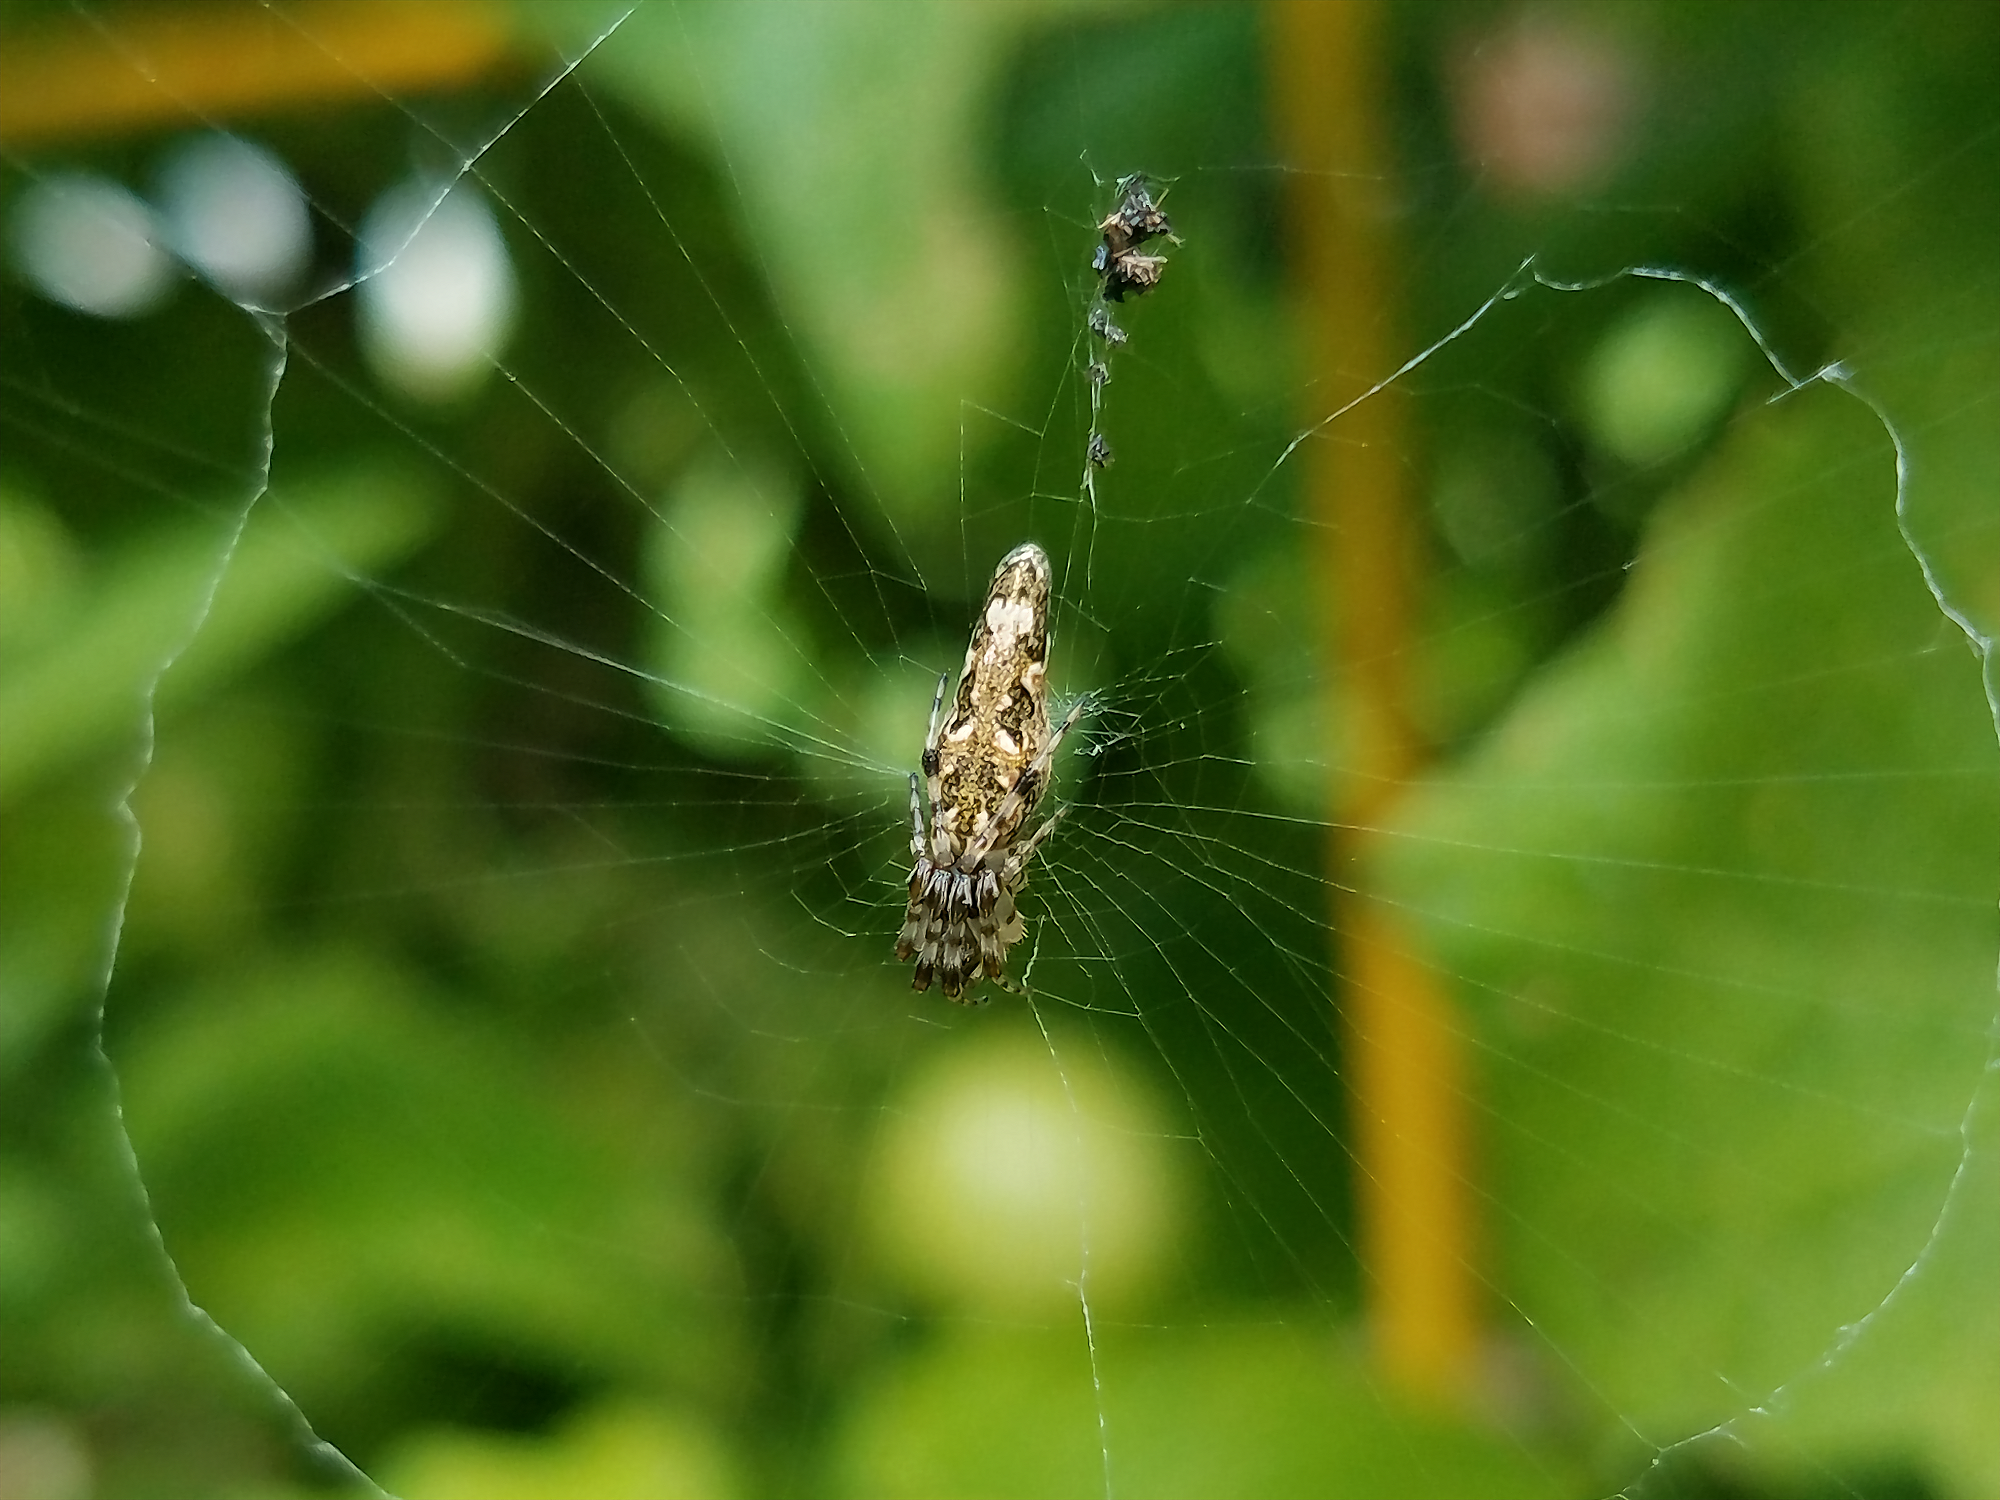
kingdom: Animalia
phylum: Arthropoda
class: Arachnida
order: Araneae
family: Araneidae
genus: Cyclosa
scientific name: Cyclosa caroli
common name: Orb weavers
